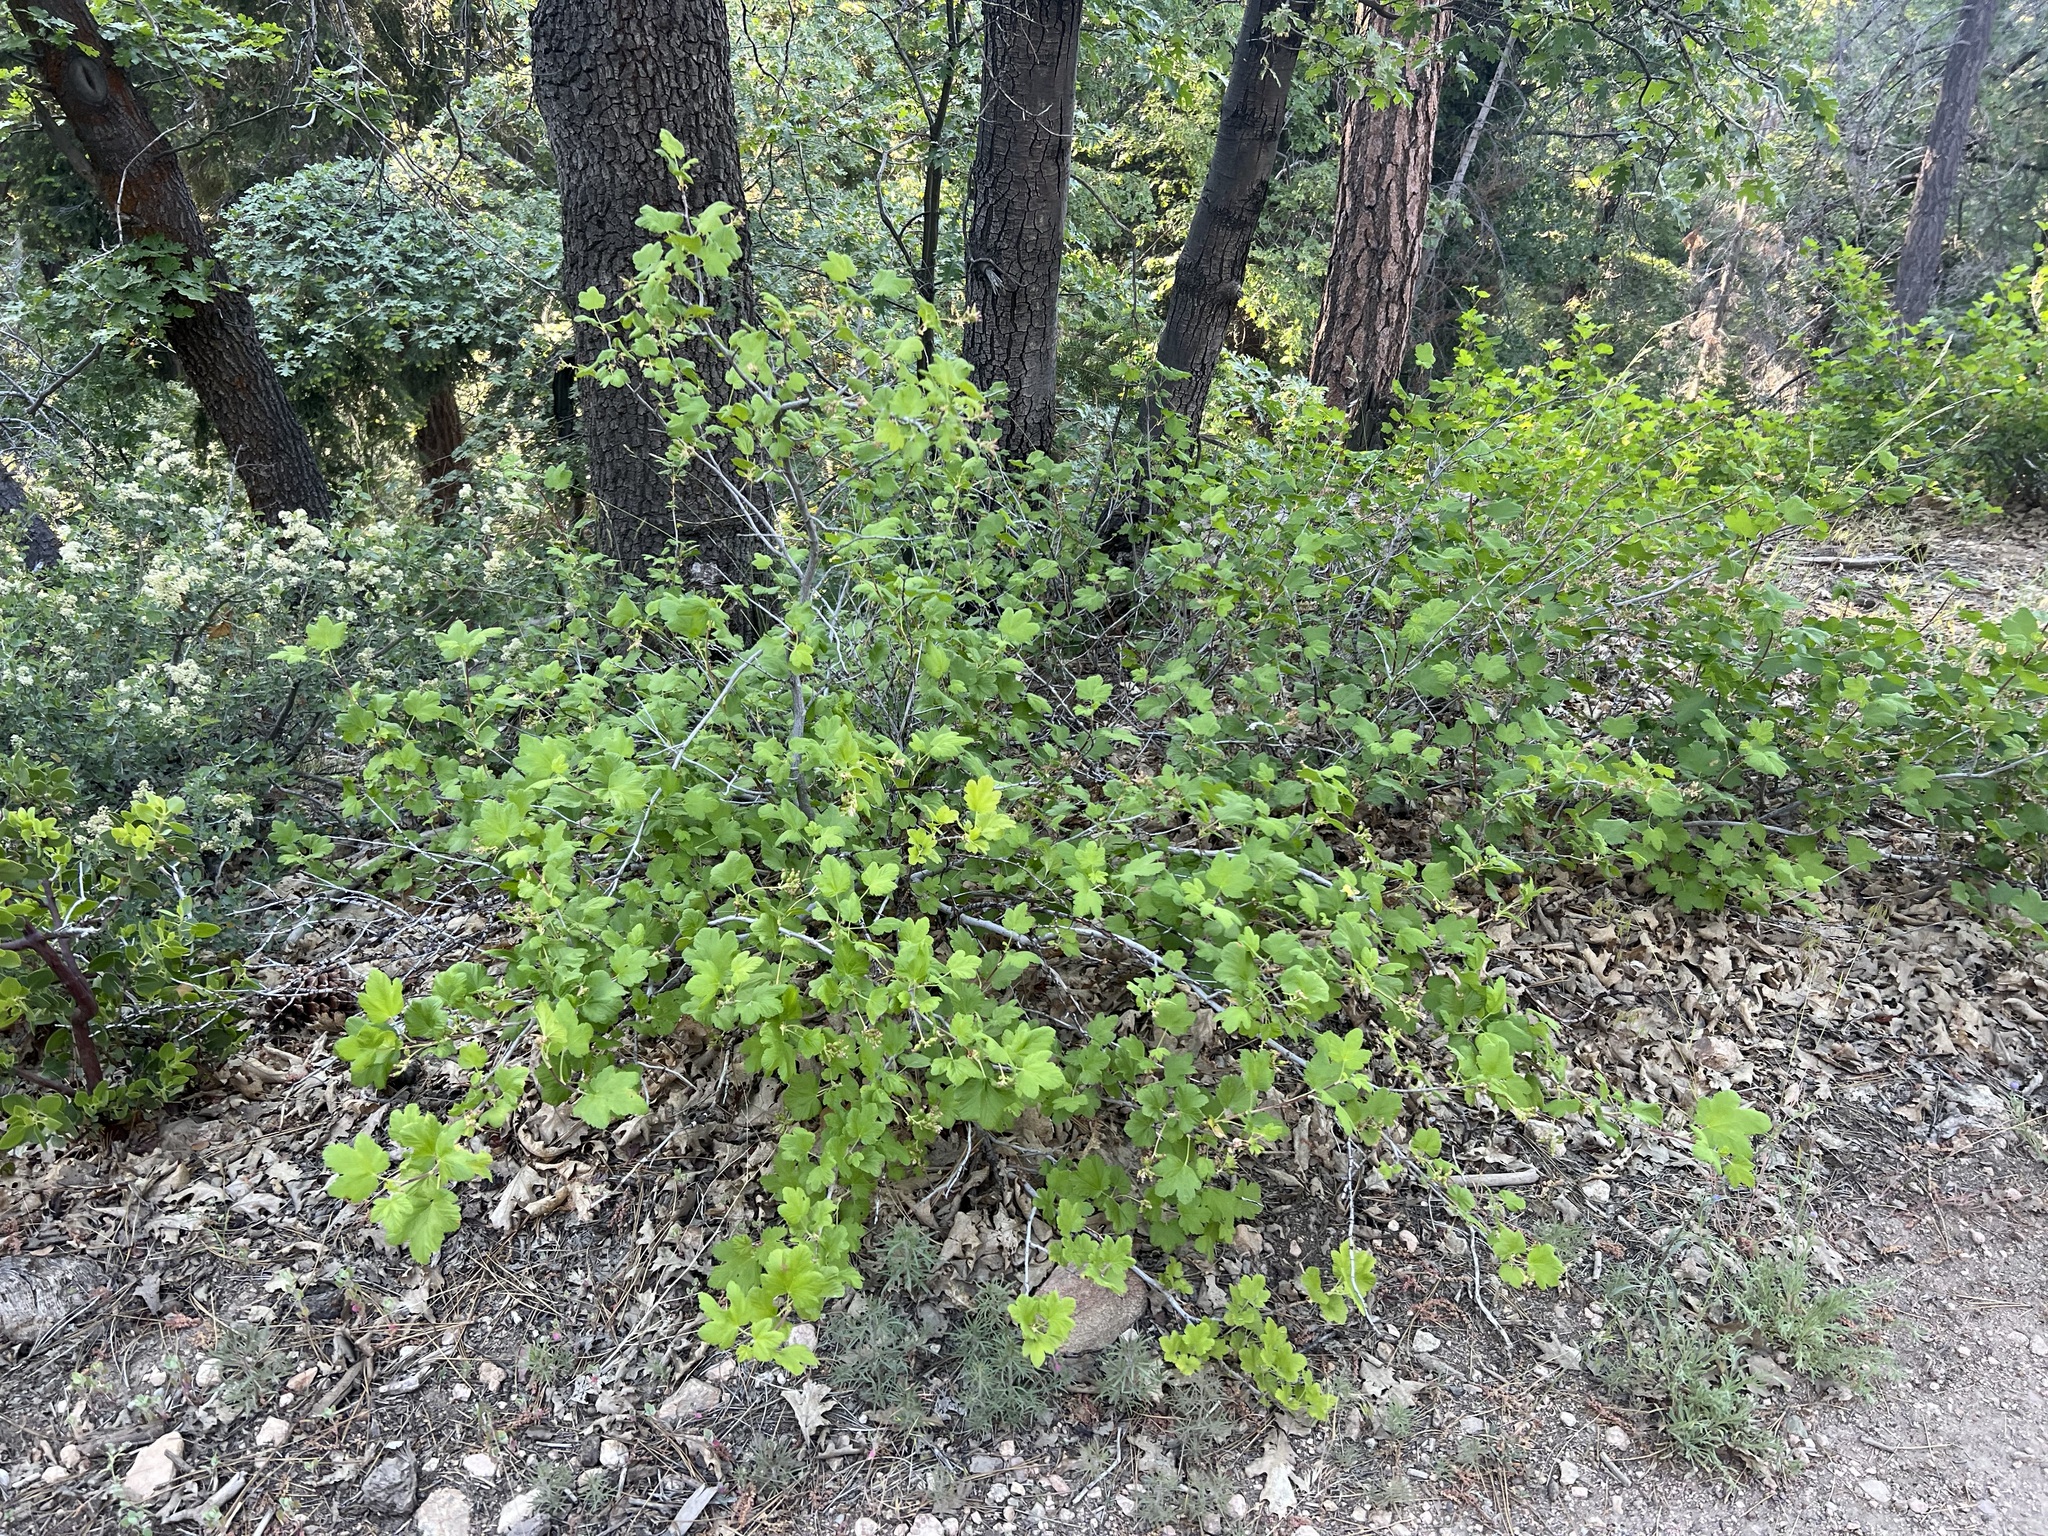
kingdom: Plantae
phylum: Tracheophyta
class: Magnoliopsida
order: Saxifragales
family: Grossulariaceae
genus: Ribes
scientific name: Ribes nevadense
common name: Mountain pink currant
